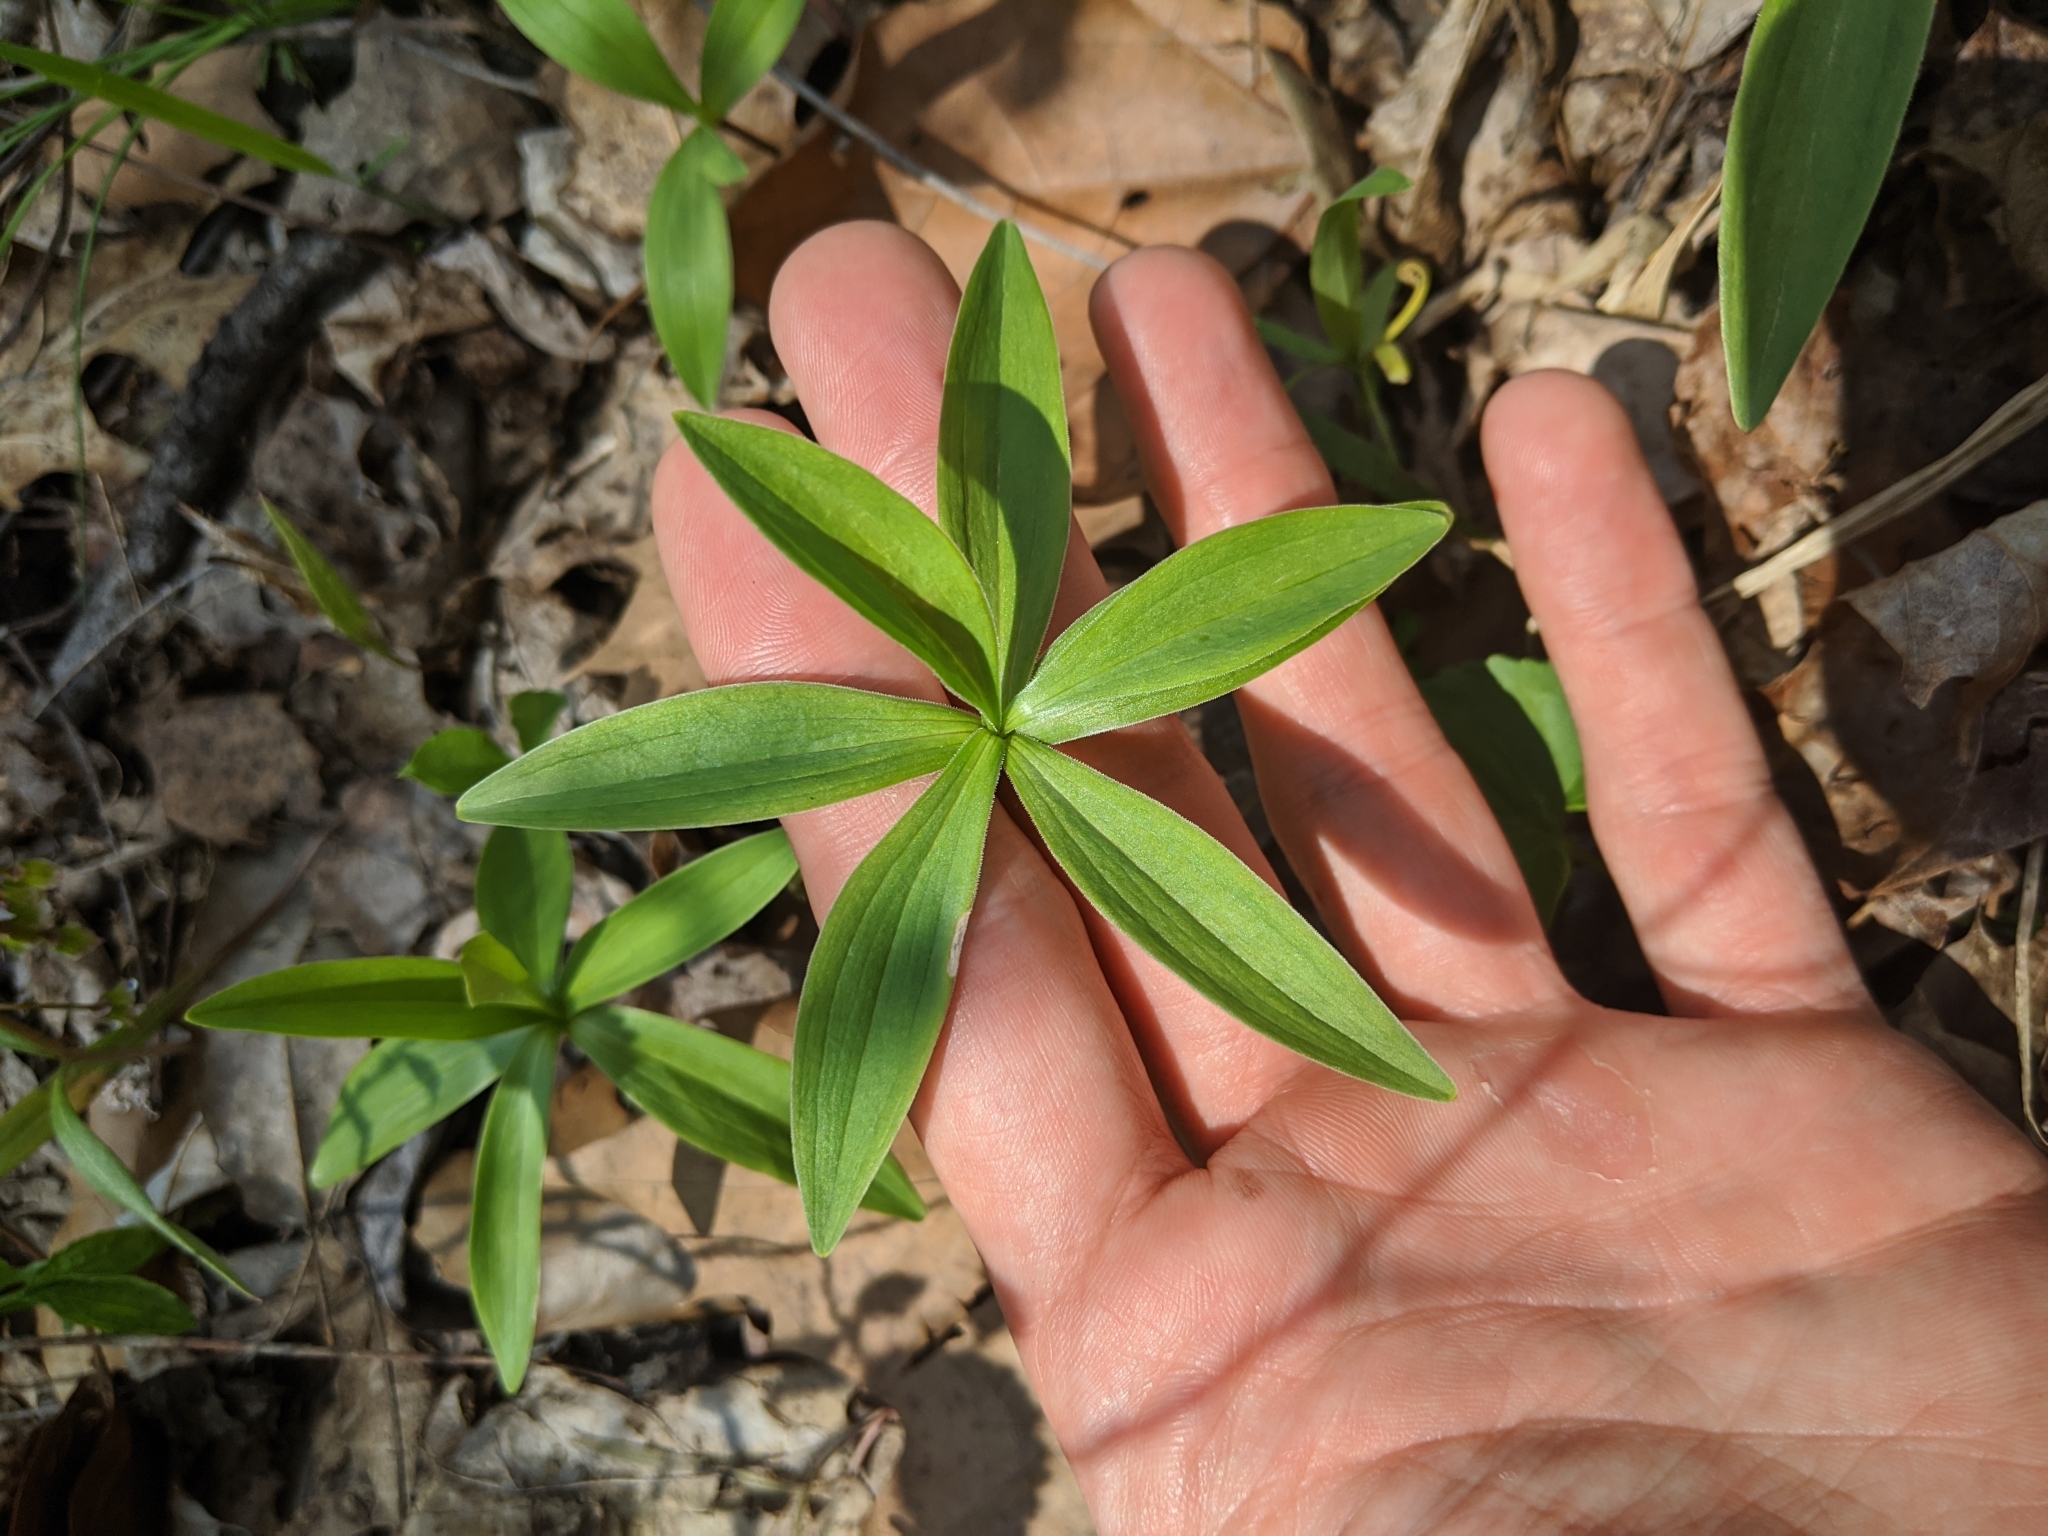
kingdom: Plantae
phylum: Tracheophyta
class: Liliopsida
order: Liliales
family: Liliaceae
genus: Lilium
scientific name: Lilium michiganense
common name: Michigan lily
